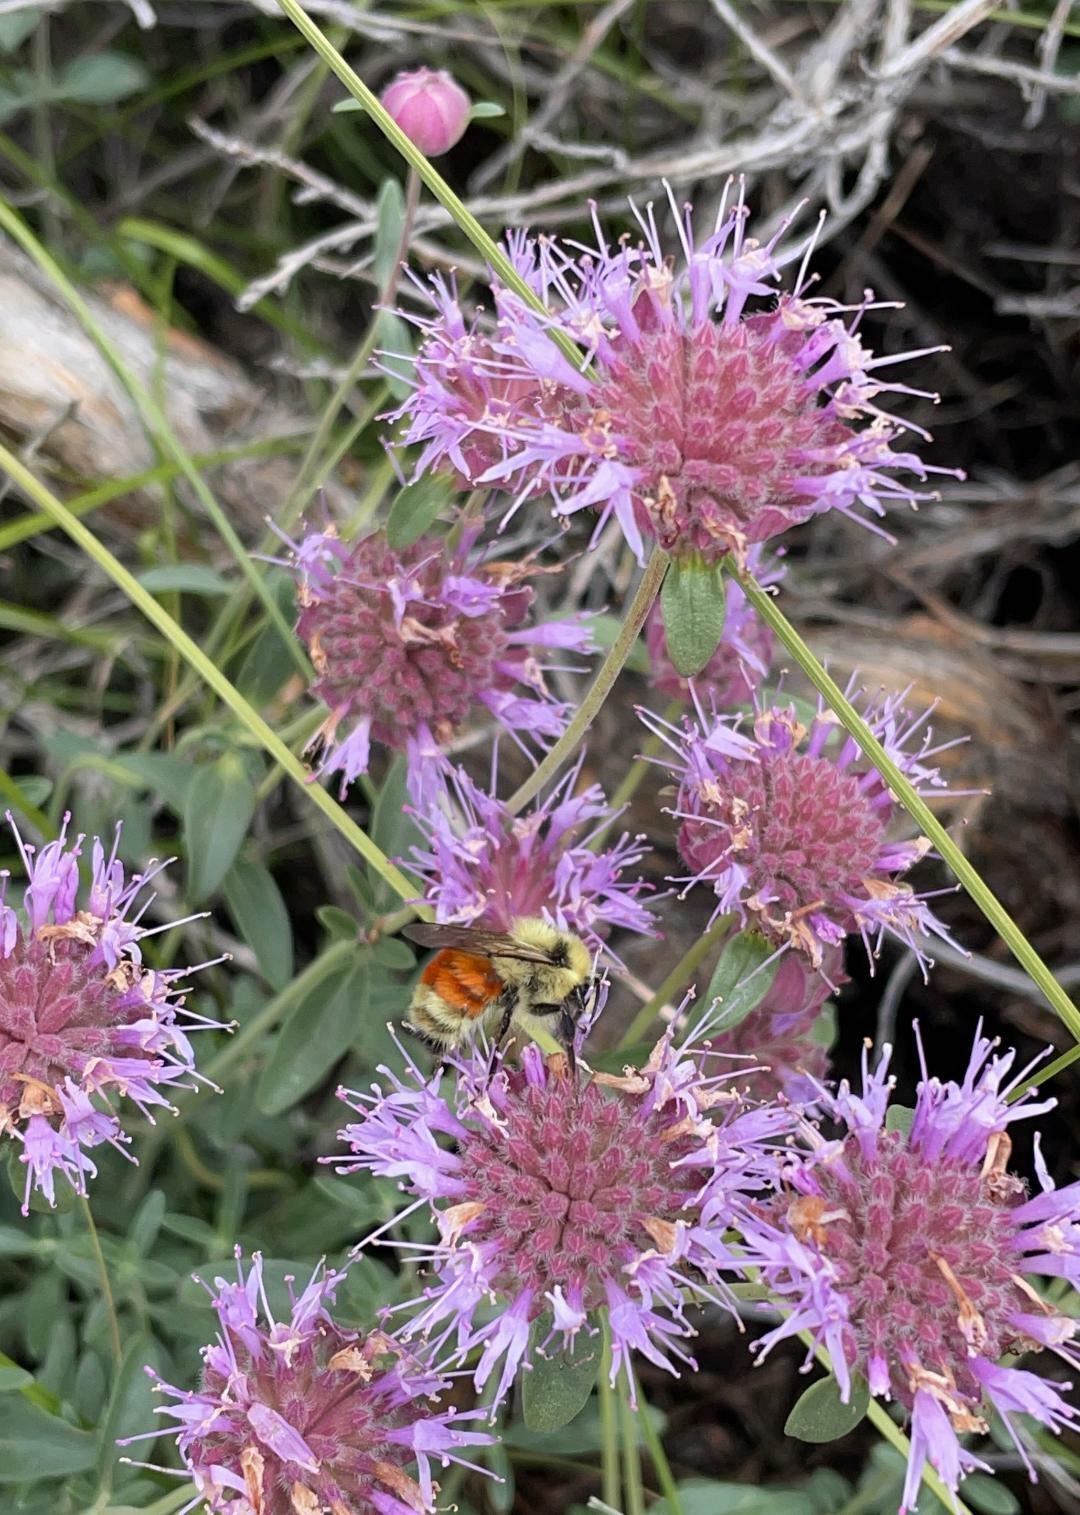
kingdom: Plantae
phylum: Tracheophyta
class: Magnoliopsida
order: Lamiales
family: Lamiaceae
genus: Monardella
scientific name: Monardella odoratissima
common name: Pacific monardella
